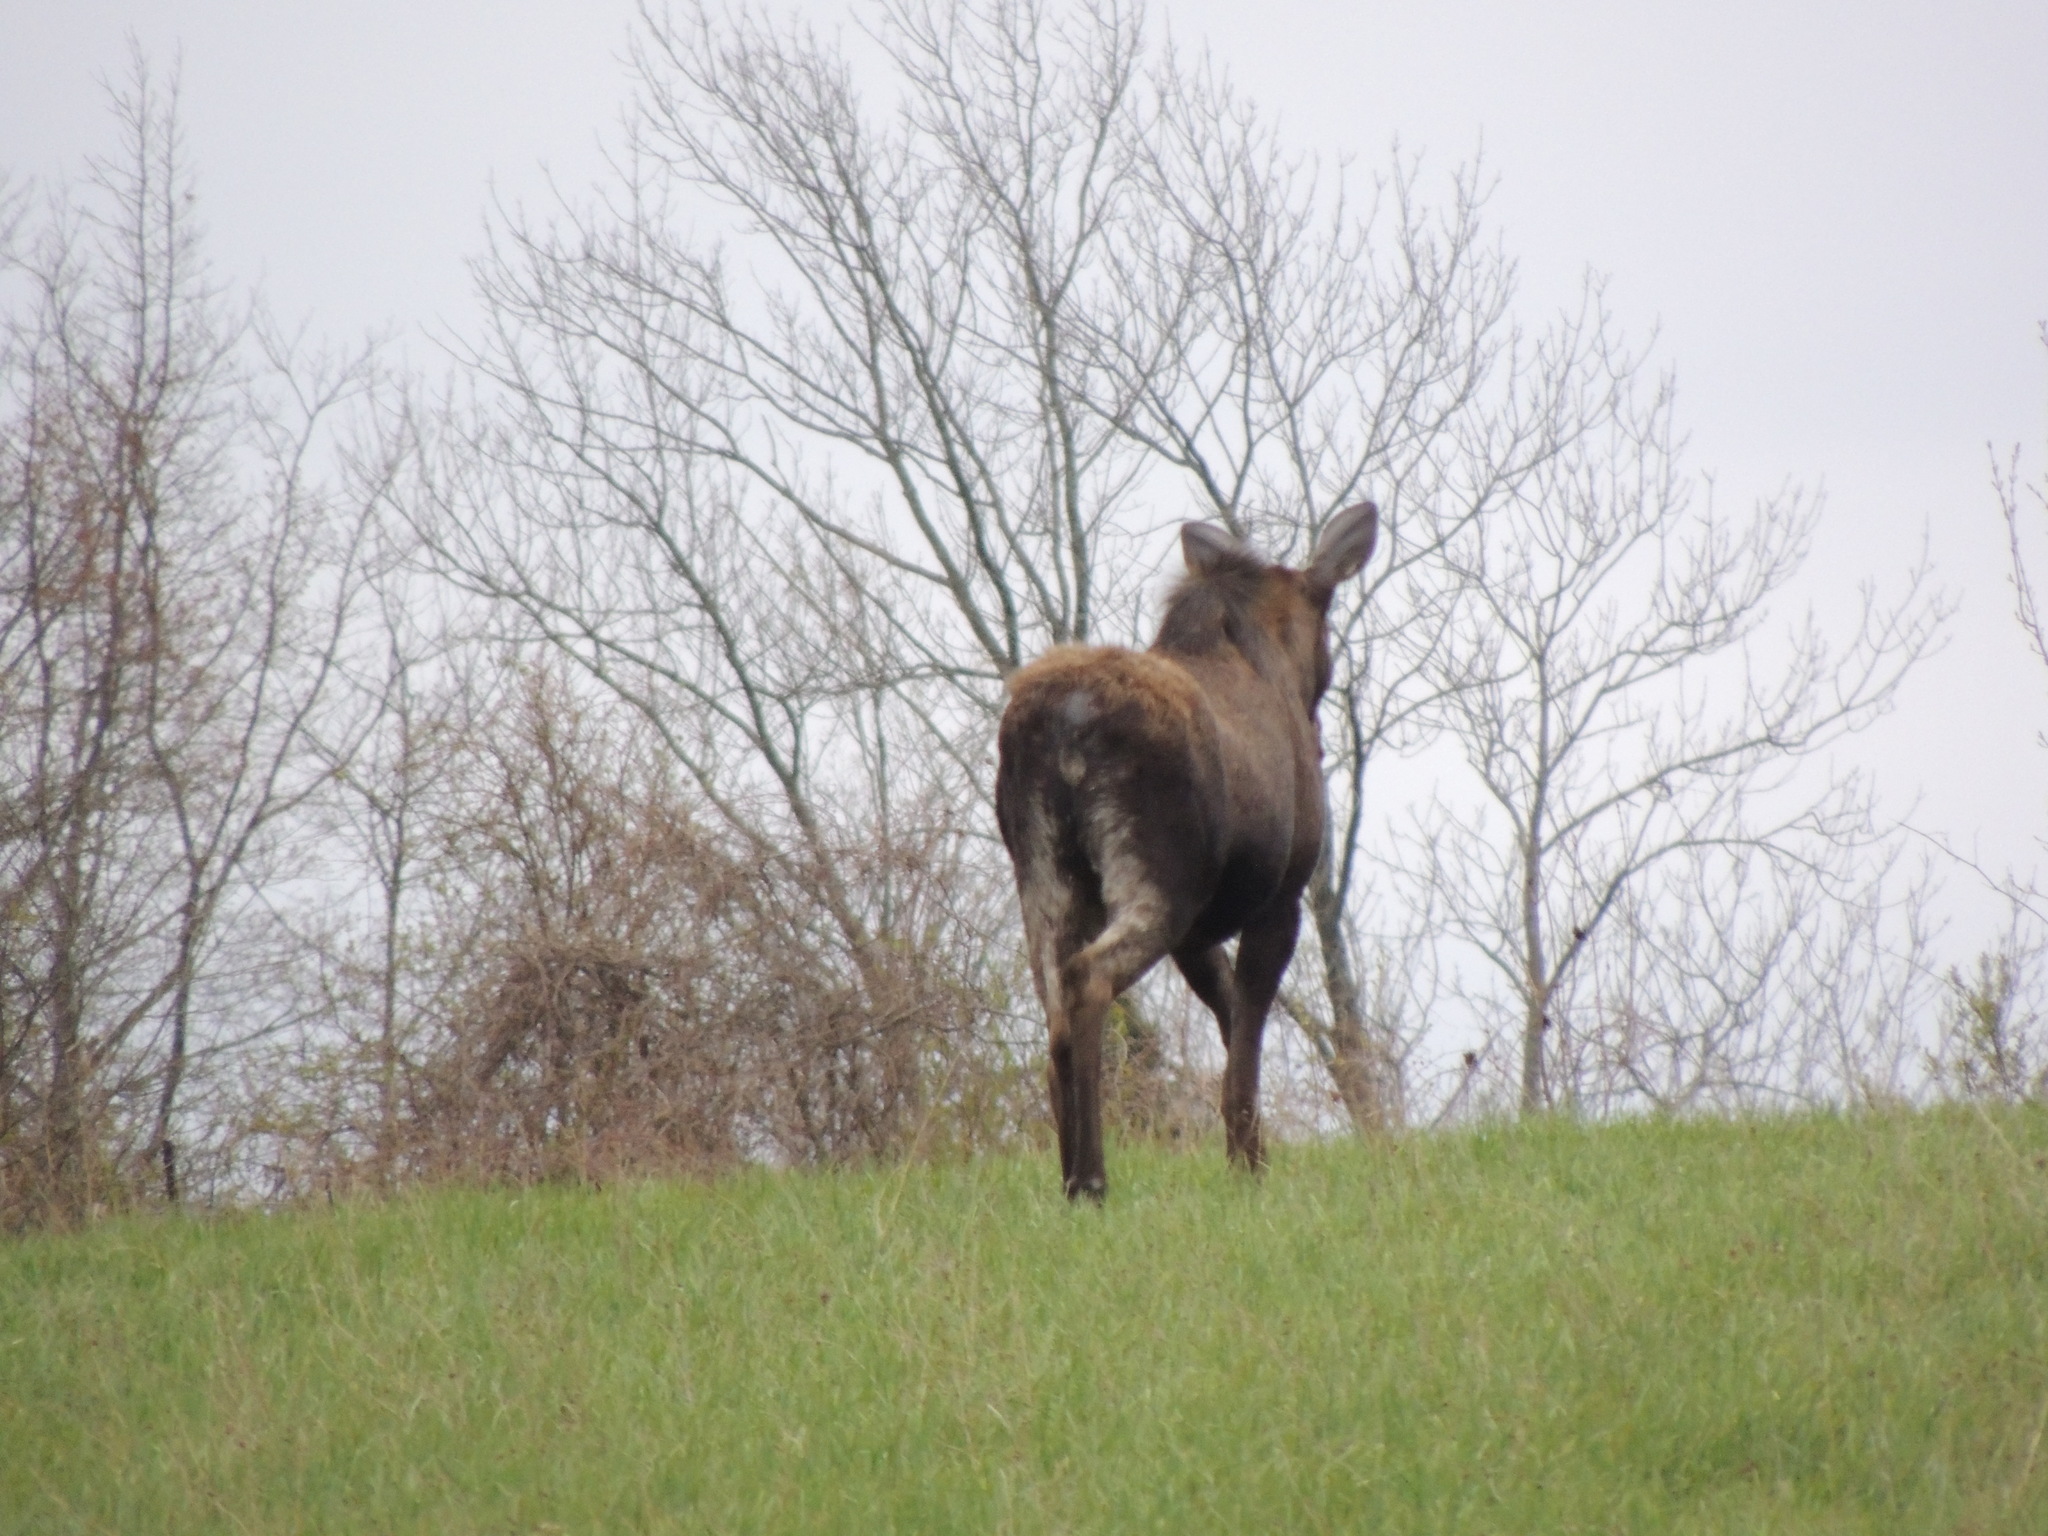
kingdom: Animalia
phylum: Chordata
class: Mammalia
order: Artiodactyla
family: Cervidae
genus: Alces
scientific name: Alces alces
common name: Moose
